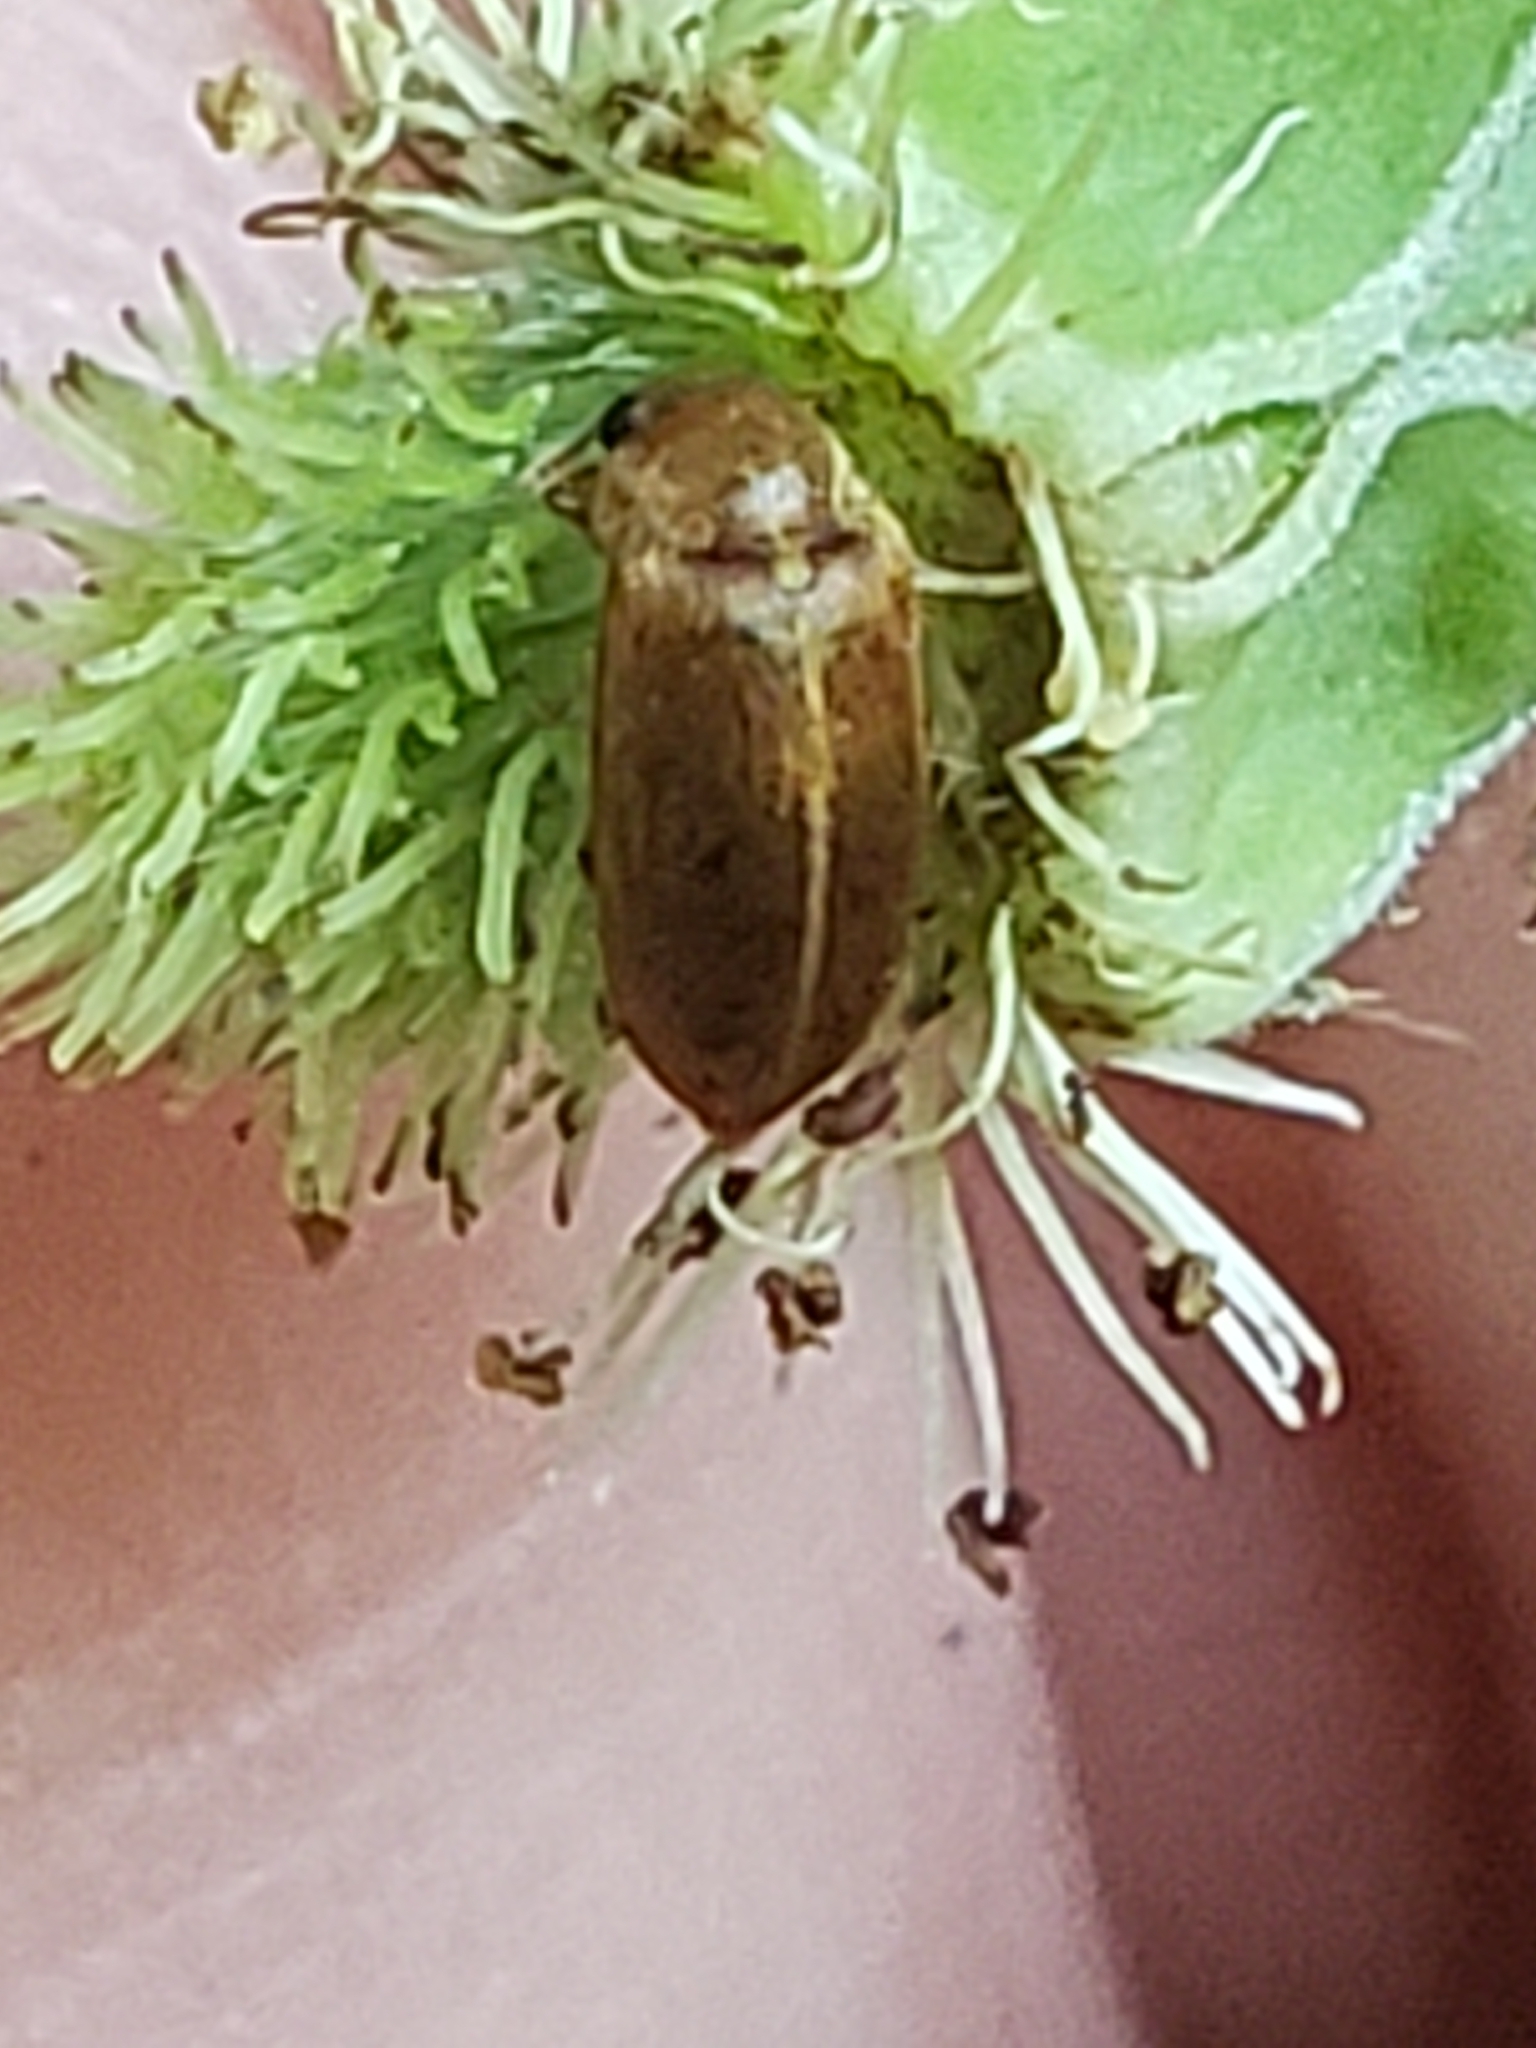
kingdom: Animalia
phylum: Arthropoda
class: Insecta
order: Coleoptera
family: Byturidae
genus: Byturus
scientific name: Byturus unicolor
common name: Raspberry fruitworm beetle
